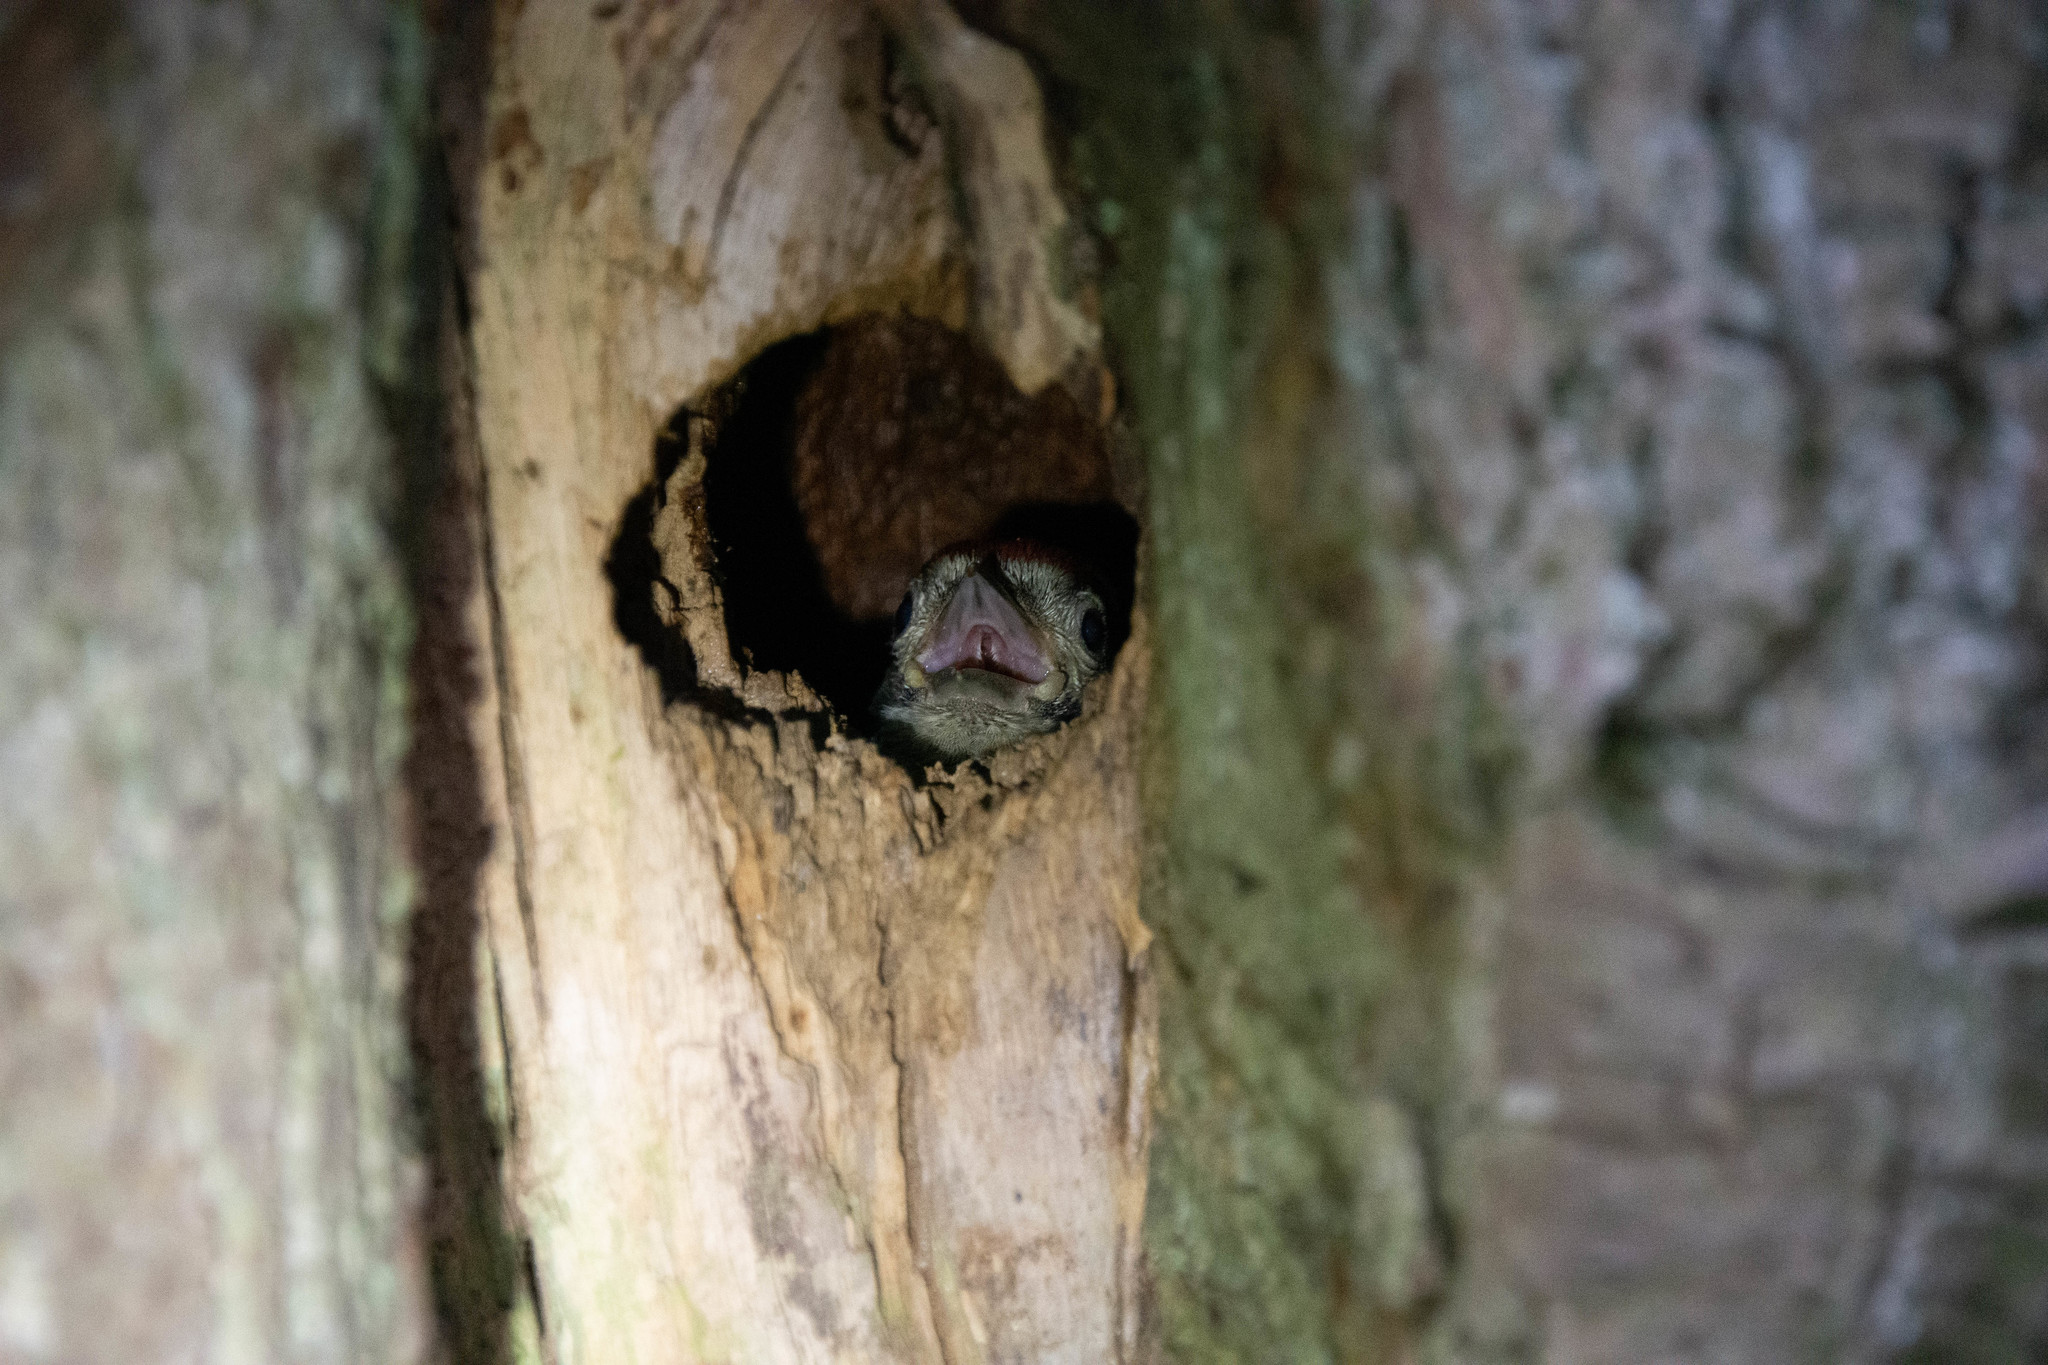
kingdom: Animalia
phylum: Chordata
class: Aves
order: Piciformes
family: Picidae
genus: Dendrocopos
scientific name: Dendrocopos major
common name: Great spotted woodpecker
